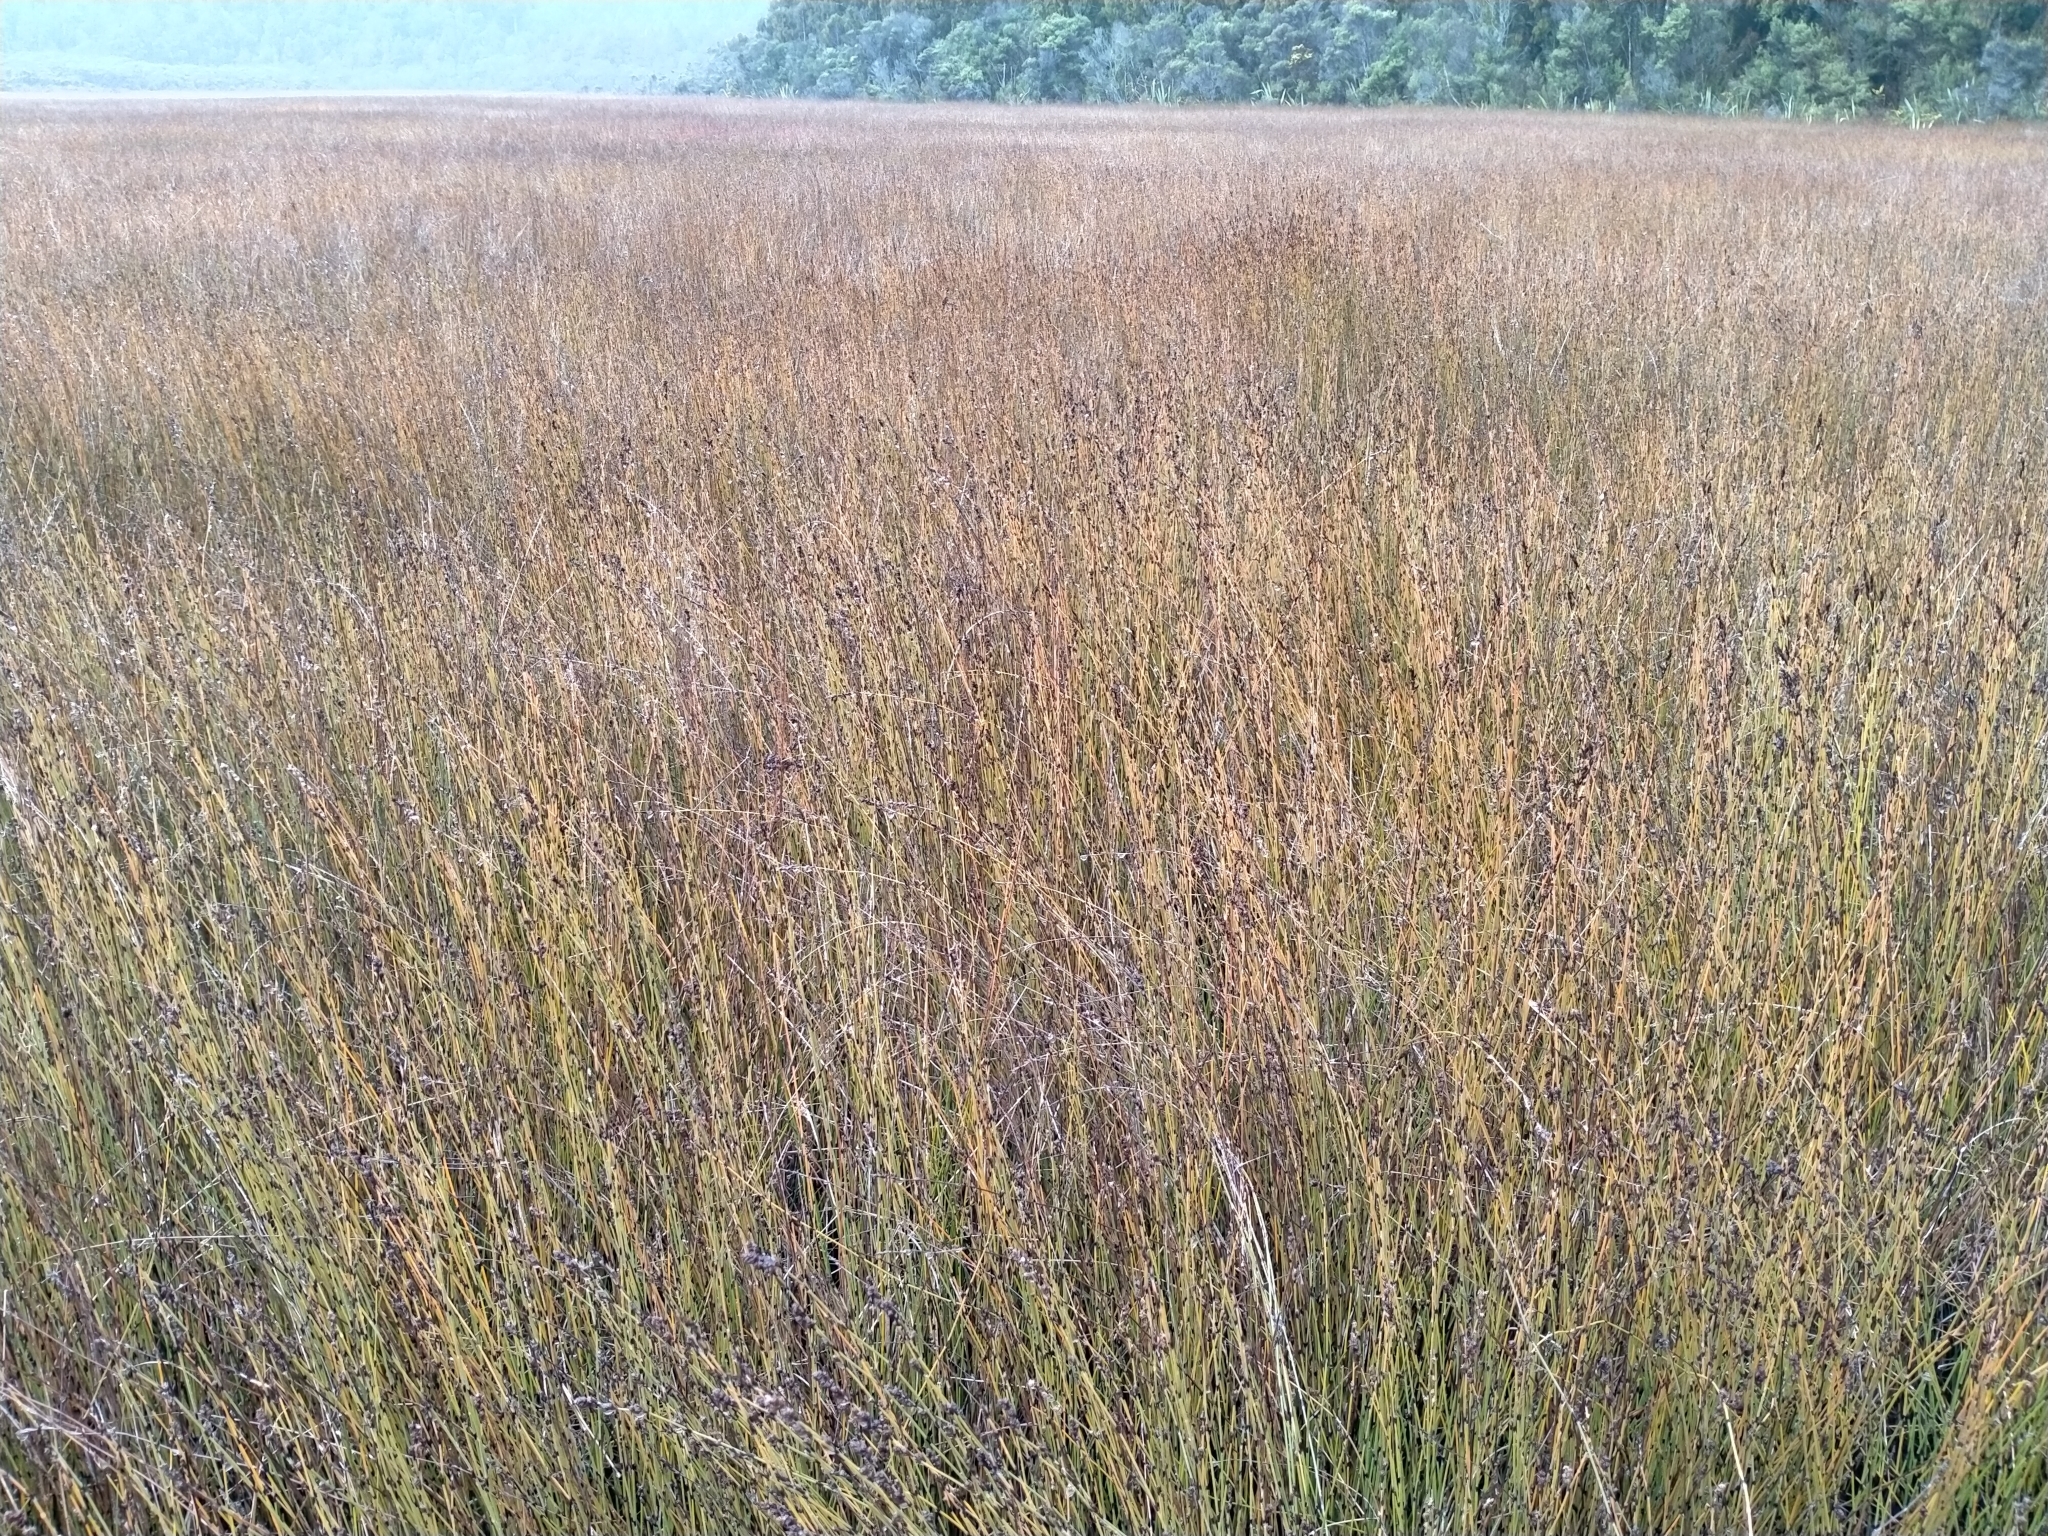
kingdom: Plantae
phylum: Tracheophyta
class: Liliopsida
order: Poales
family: Restionaceae
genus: Apodasmia
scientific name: Apodasmia similis
